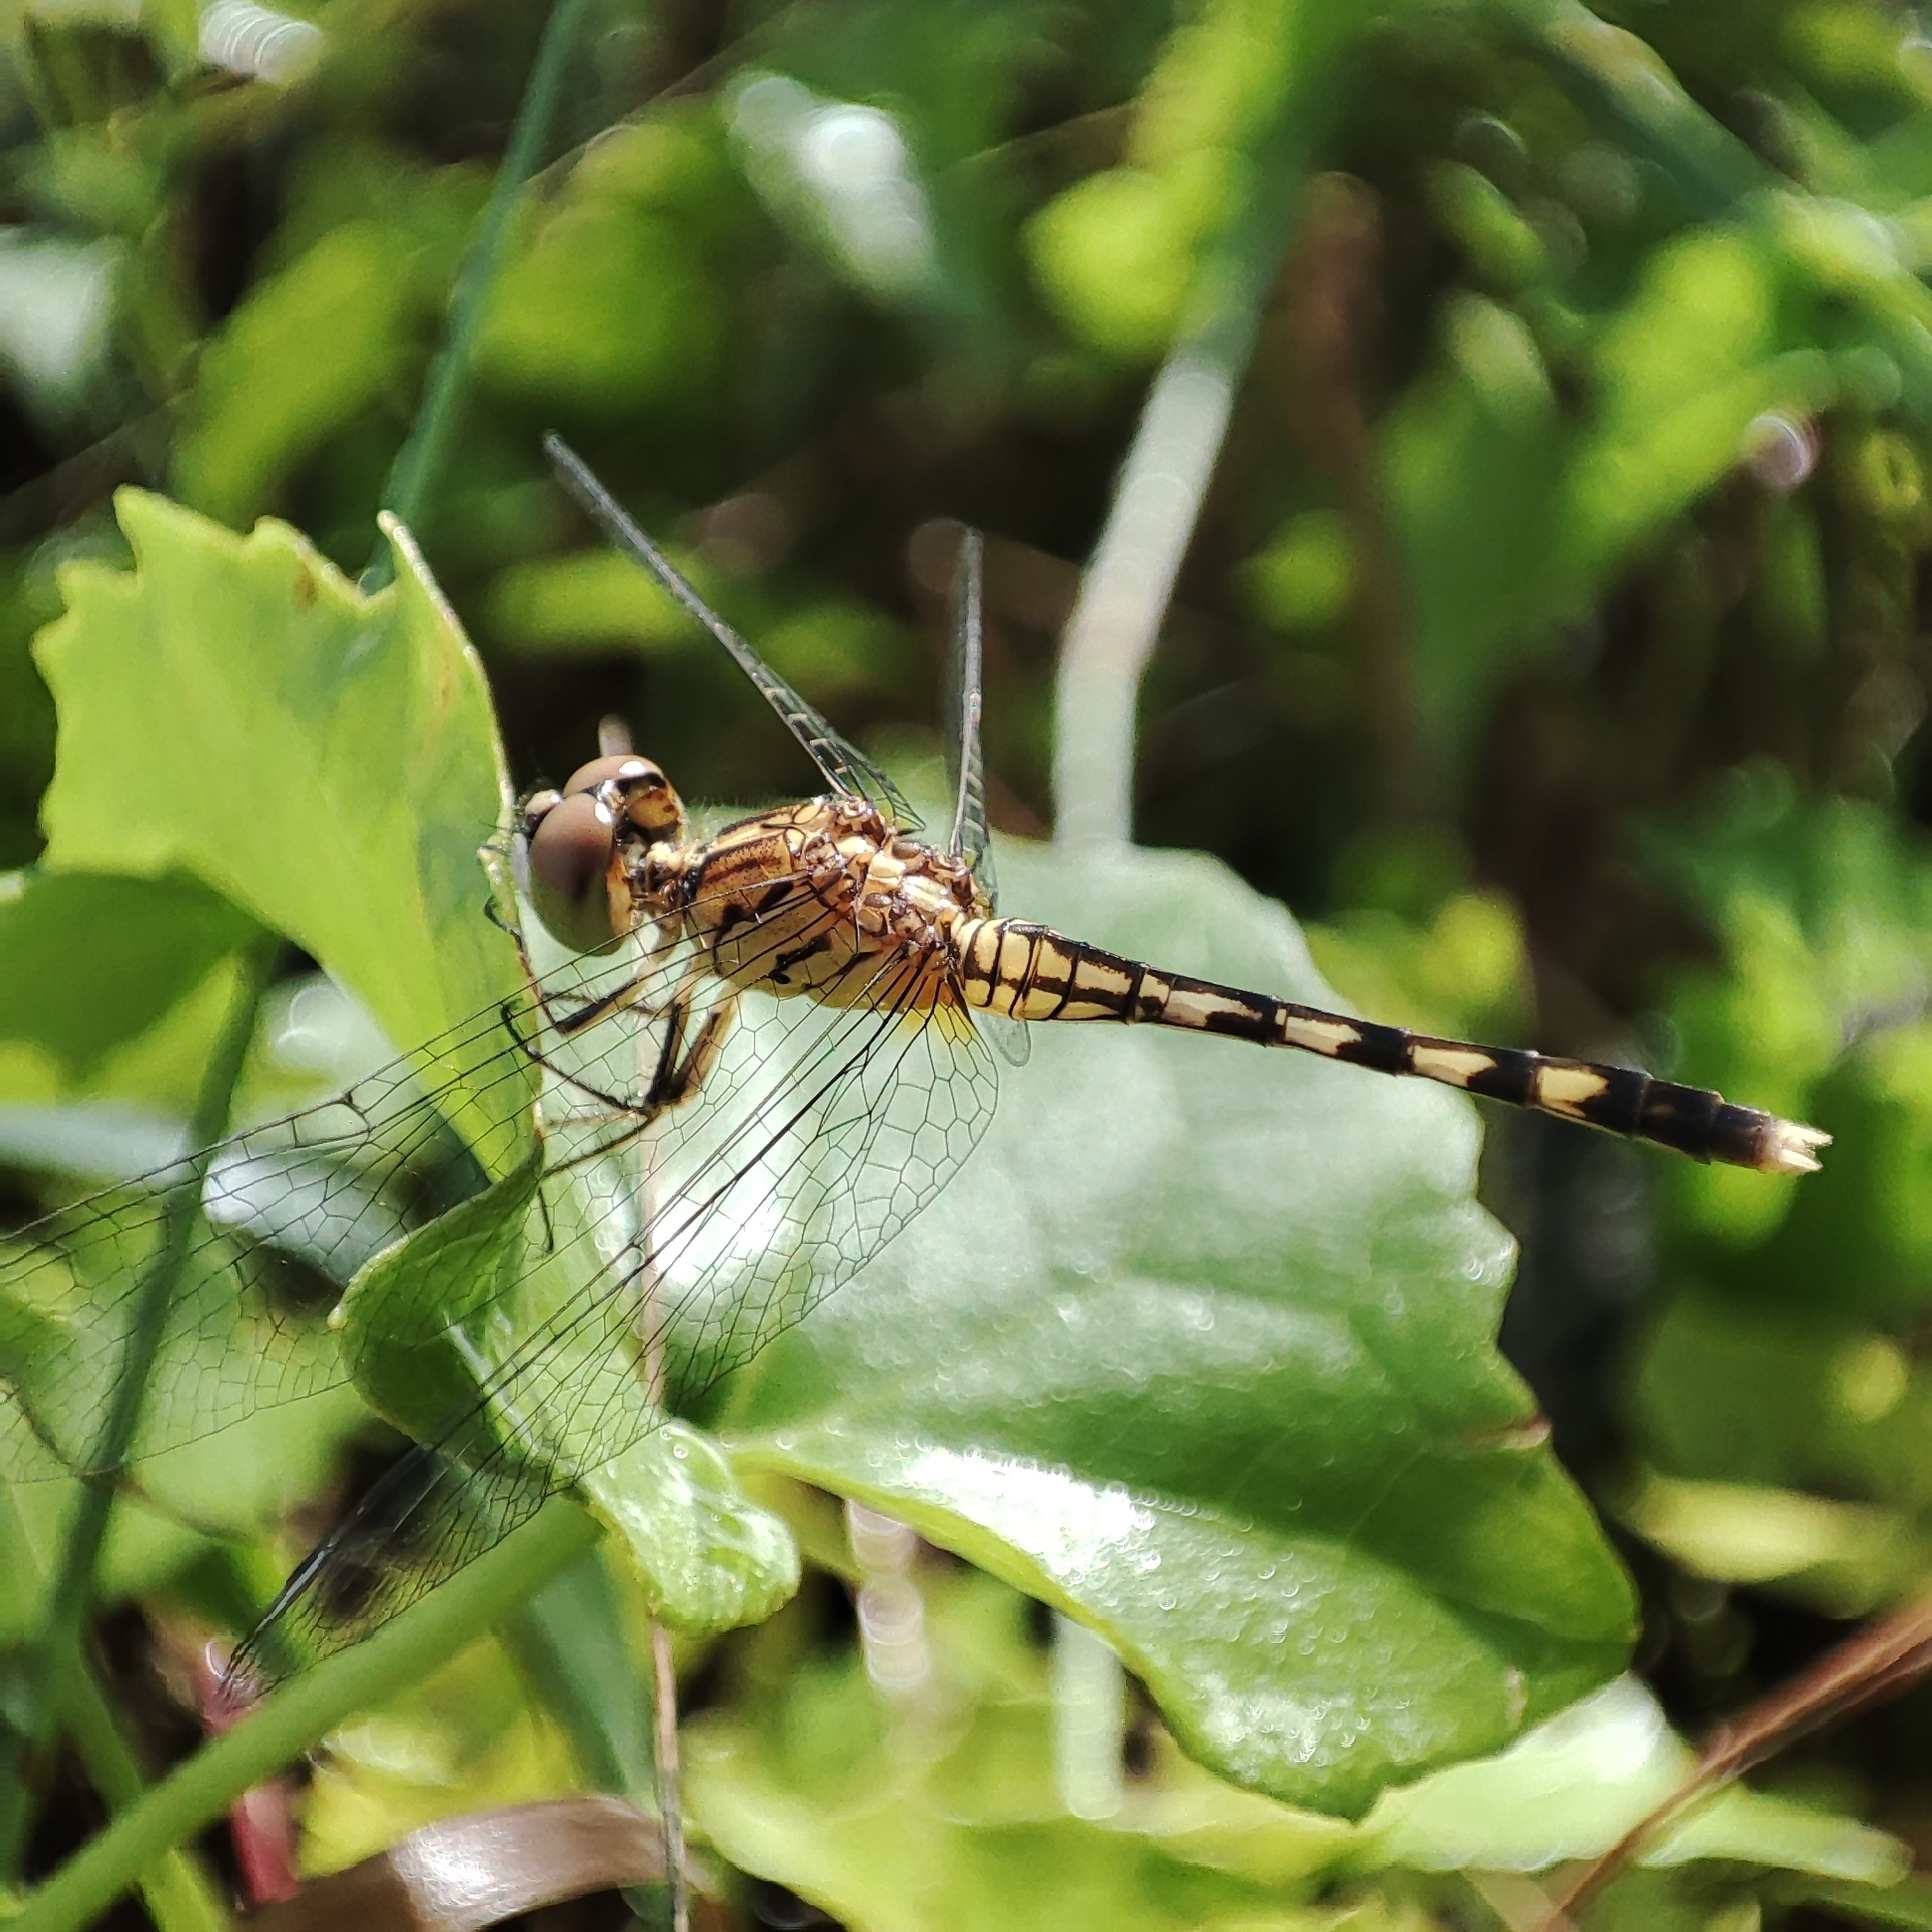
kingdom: Animalia
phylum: Arthropoda
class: Insecta
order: Odonata
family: Libellulidae
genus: Diplacodes
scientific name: Diplacodes trivialis
